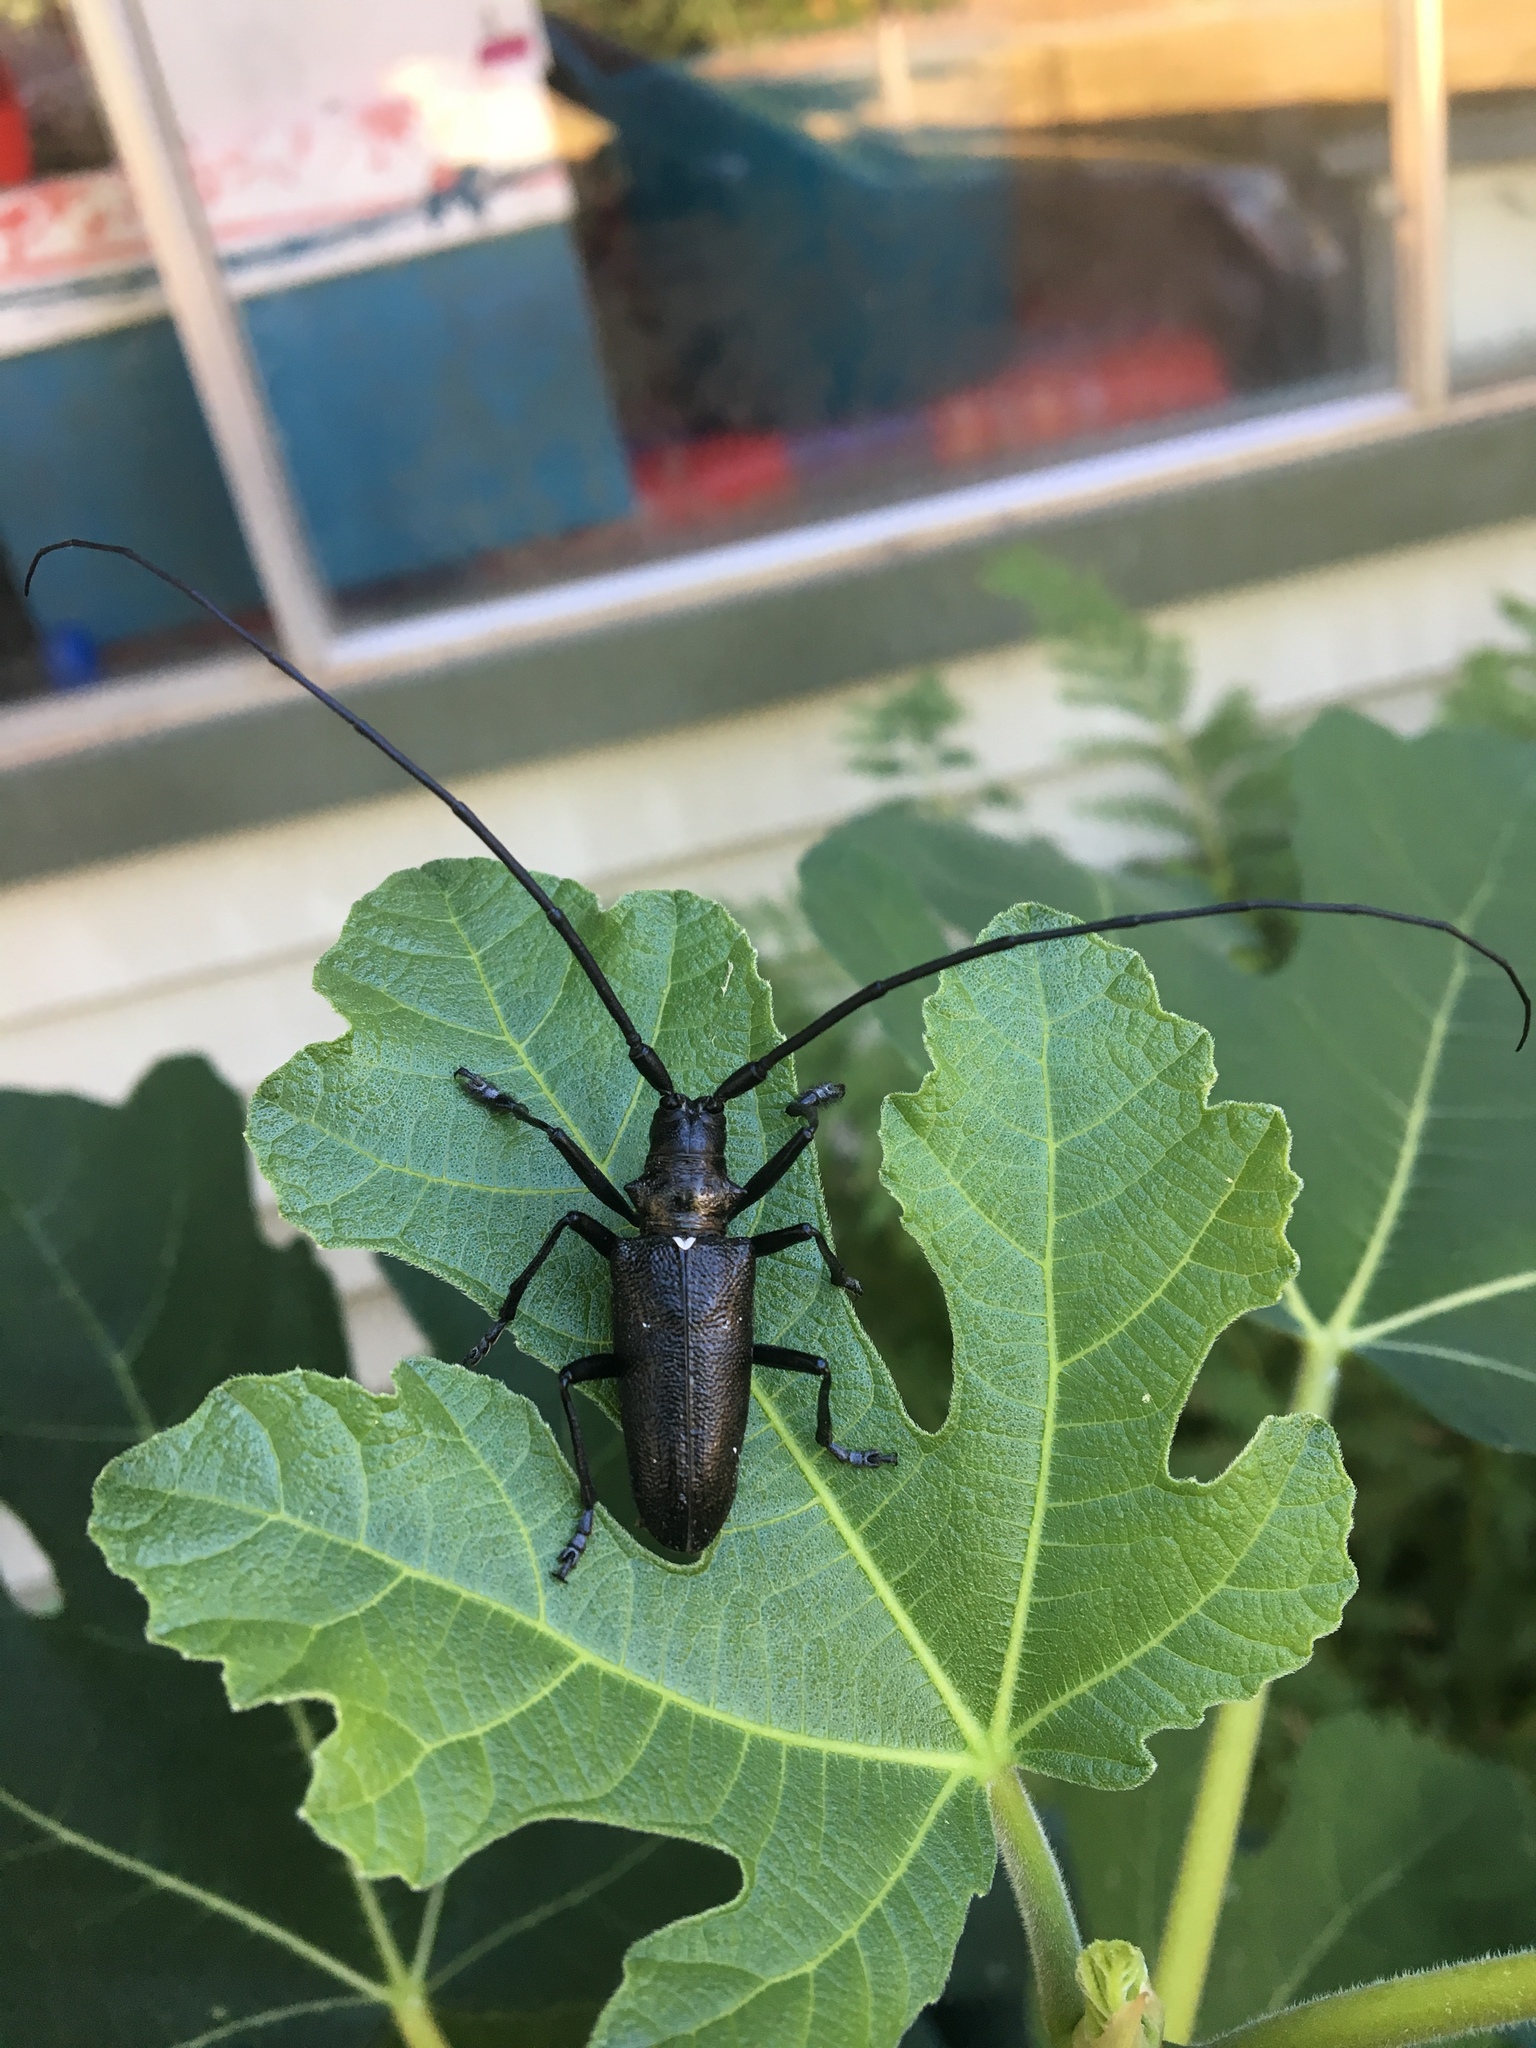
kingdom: Animalia
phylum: Arthropoda
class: Insecta
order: Coleoptera
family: Cerambycidae
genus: Monochamus
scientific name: Monochamus scutellatus
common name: White-spotted sawyer beetle
